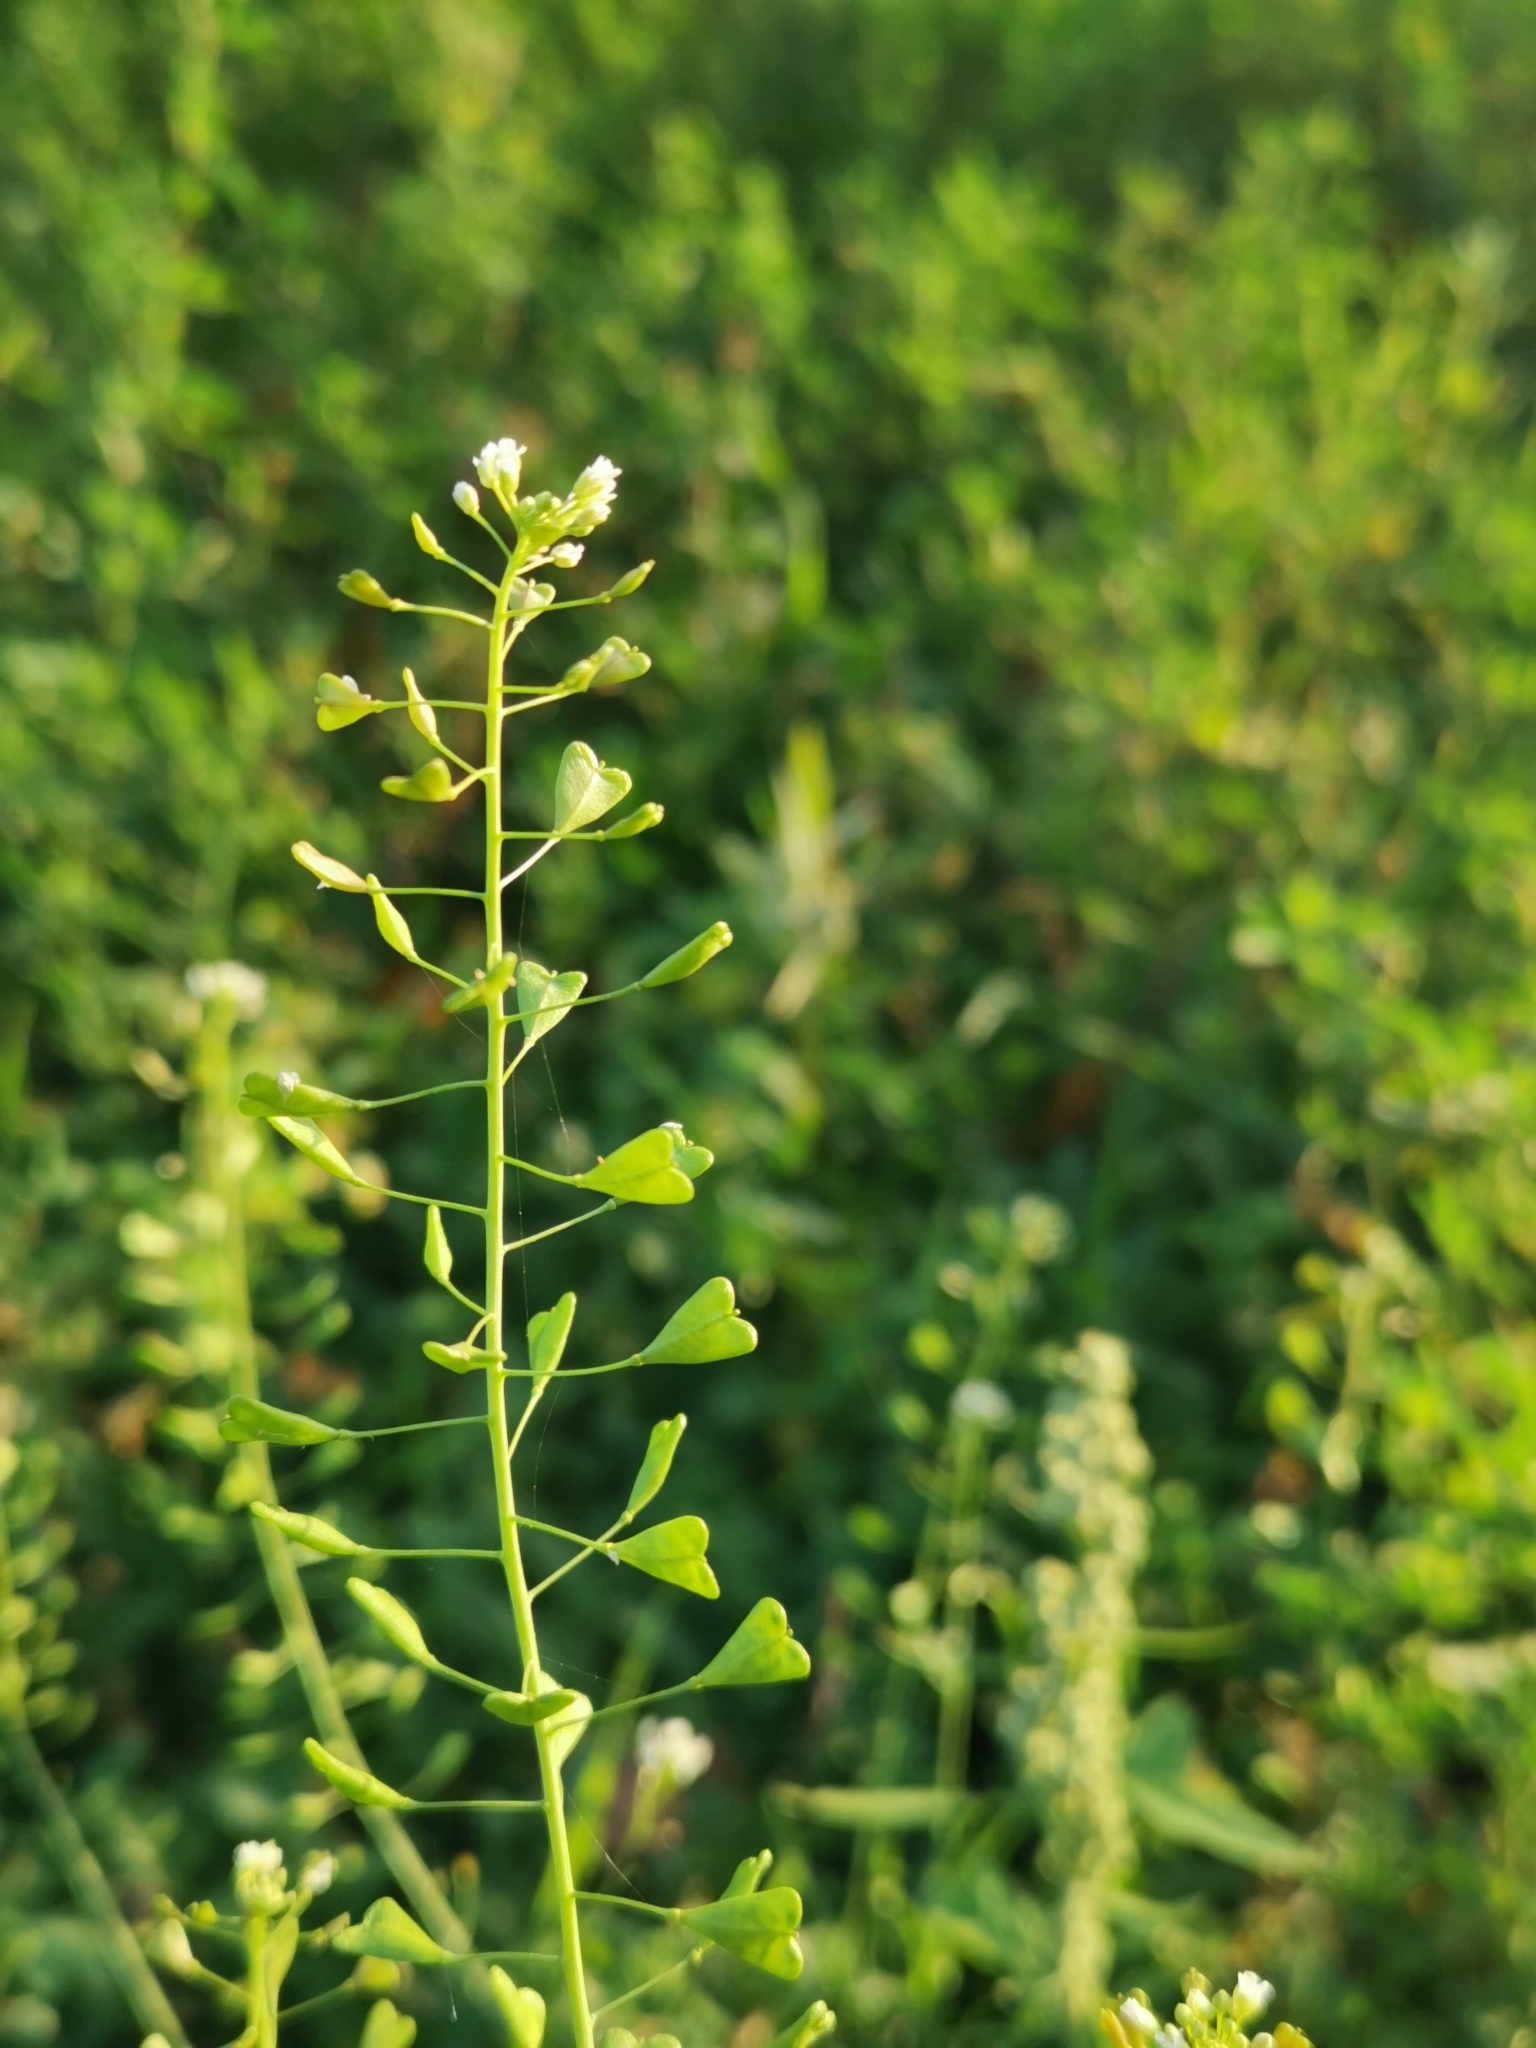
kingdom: Plantae
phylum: Tracheophyta
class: Magnoliopsida
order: Brassicales
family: Brassicaceae
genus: Capsella
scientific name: Capsella bursa-pastoris
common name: Shepherd's purse
